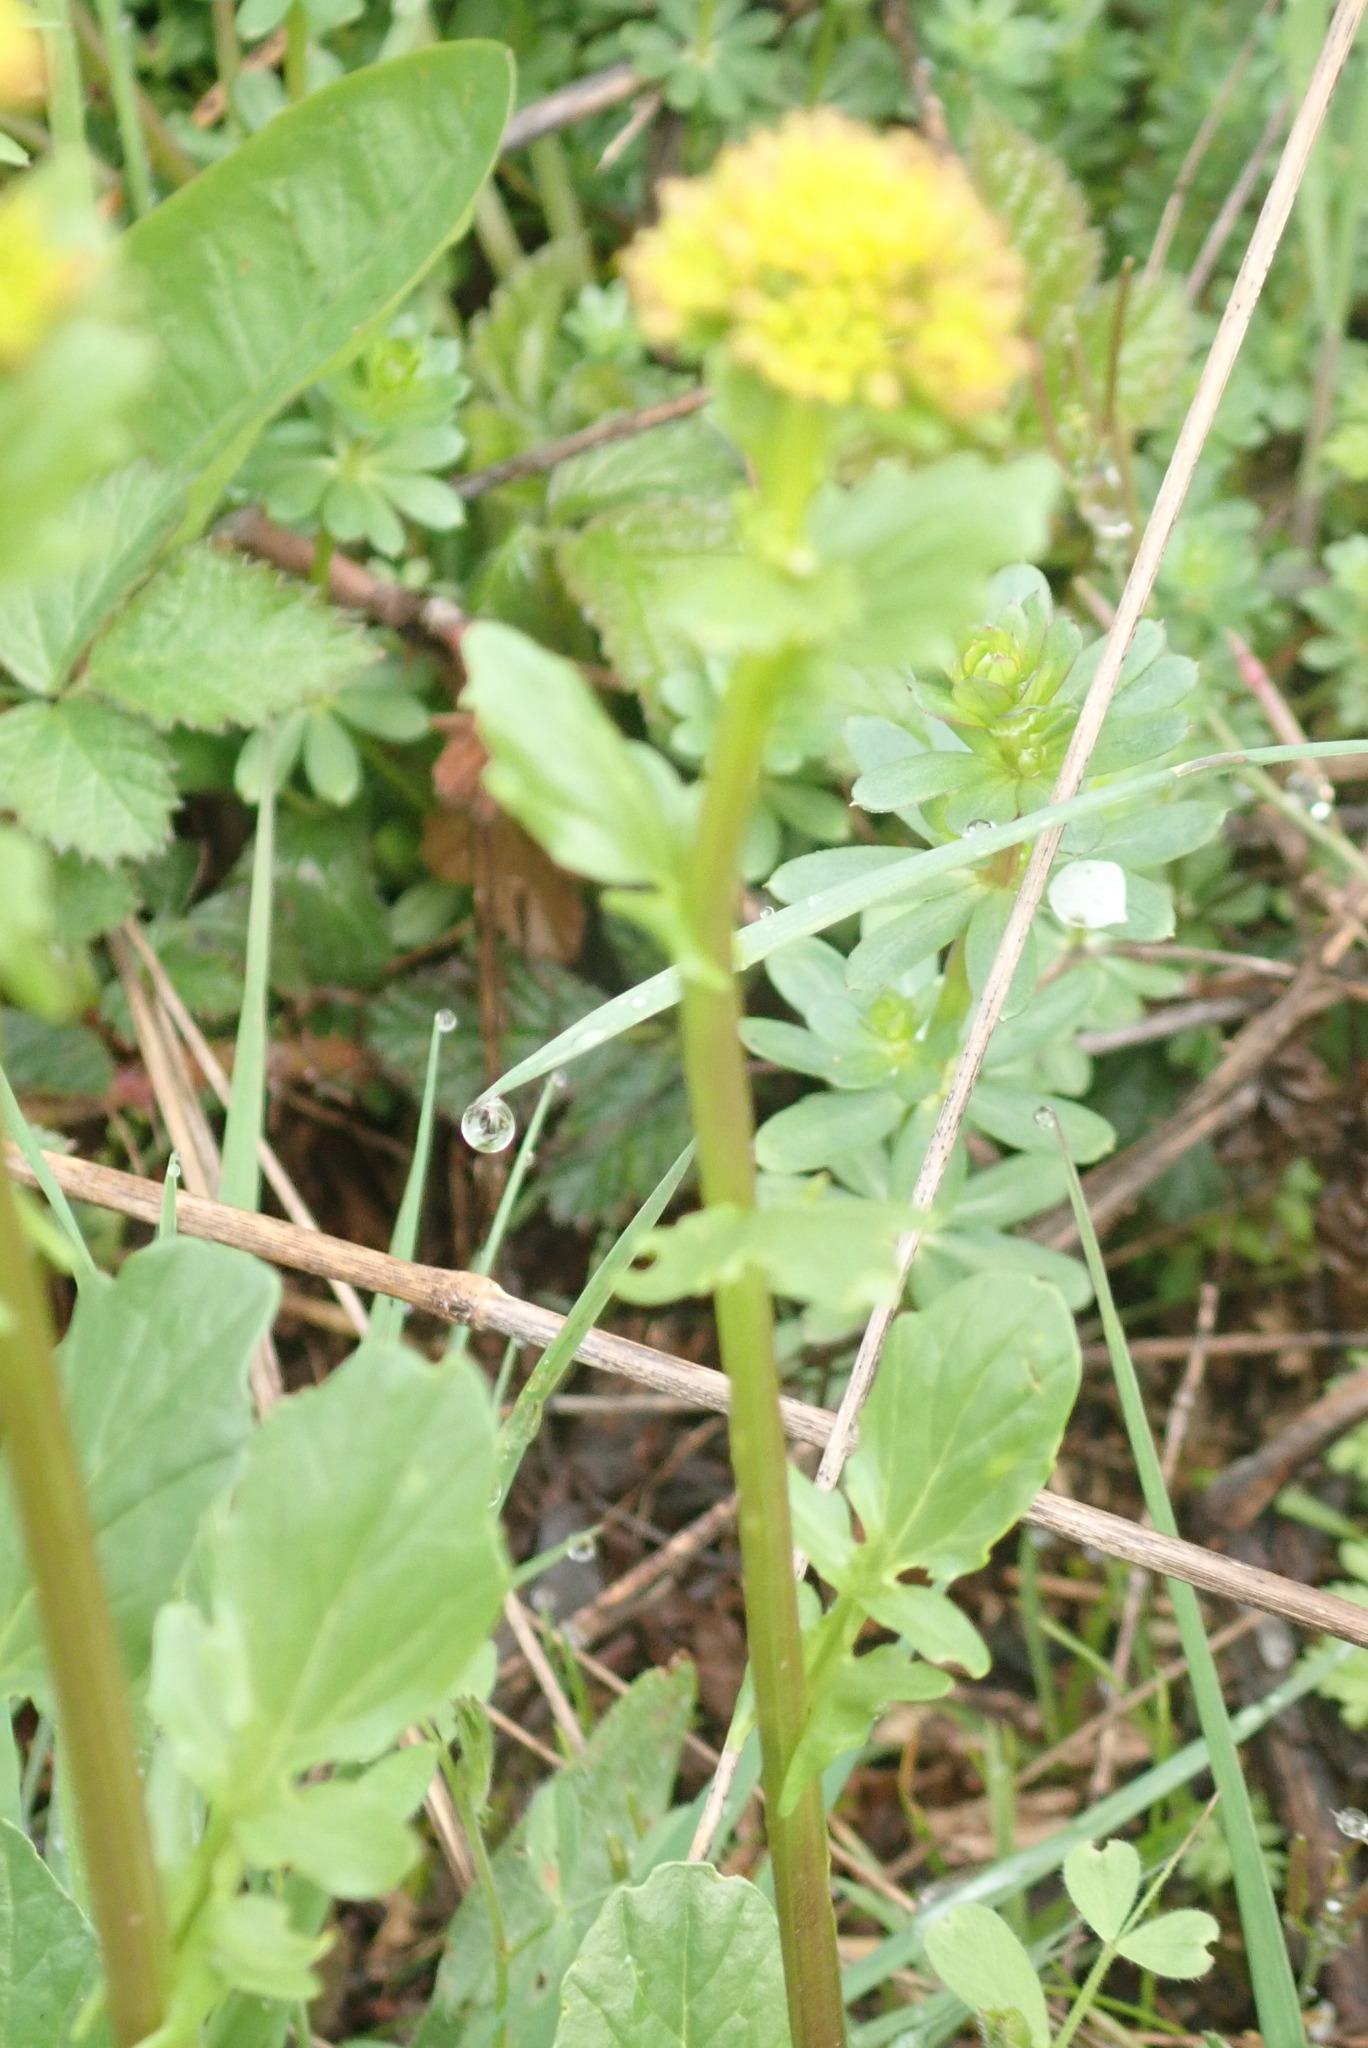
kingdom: Plantae
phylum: Tracheophyta
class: Magnoliopsida
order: Brassicales
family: Brassicaceae
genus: Barbarea
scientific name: Barbarea vulgaris
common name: Cressy-greens
